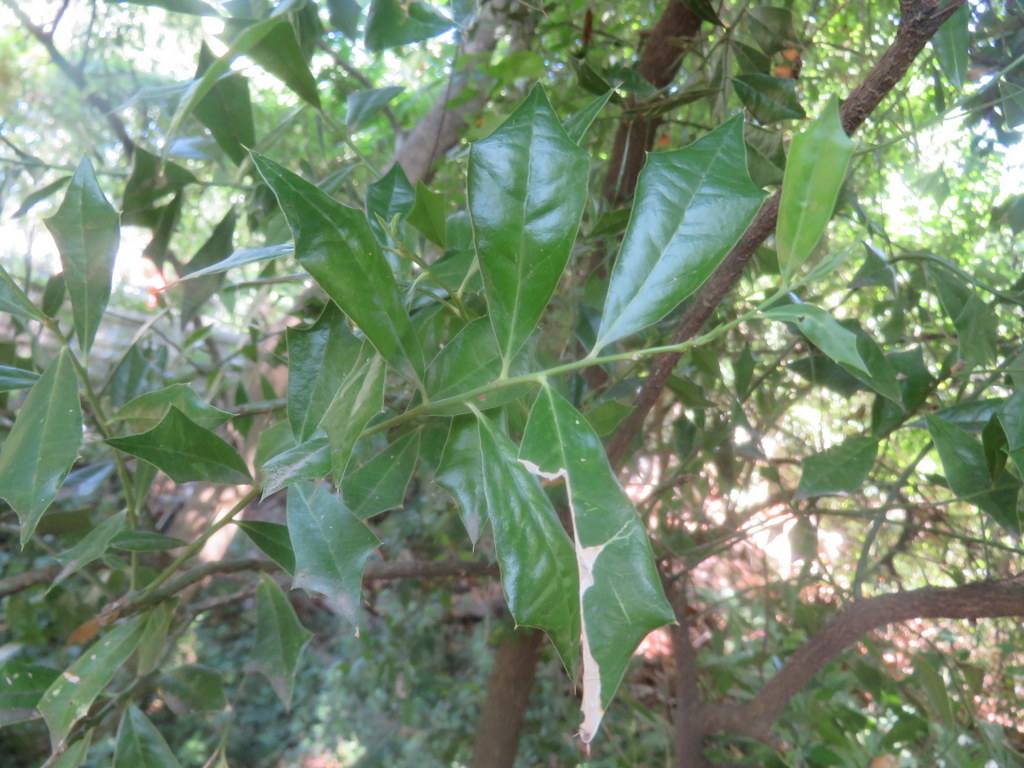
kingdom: Plantae
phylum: Tracheophyta
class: Magnoliopsida
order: Santalales
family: Cervantesiaceae
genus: Jodina
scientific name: Jodina rhombifolia
